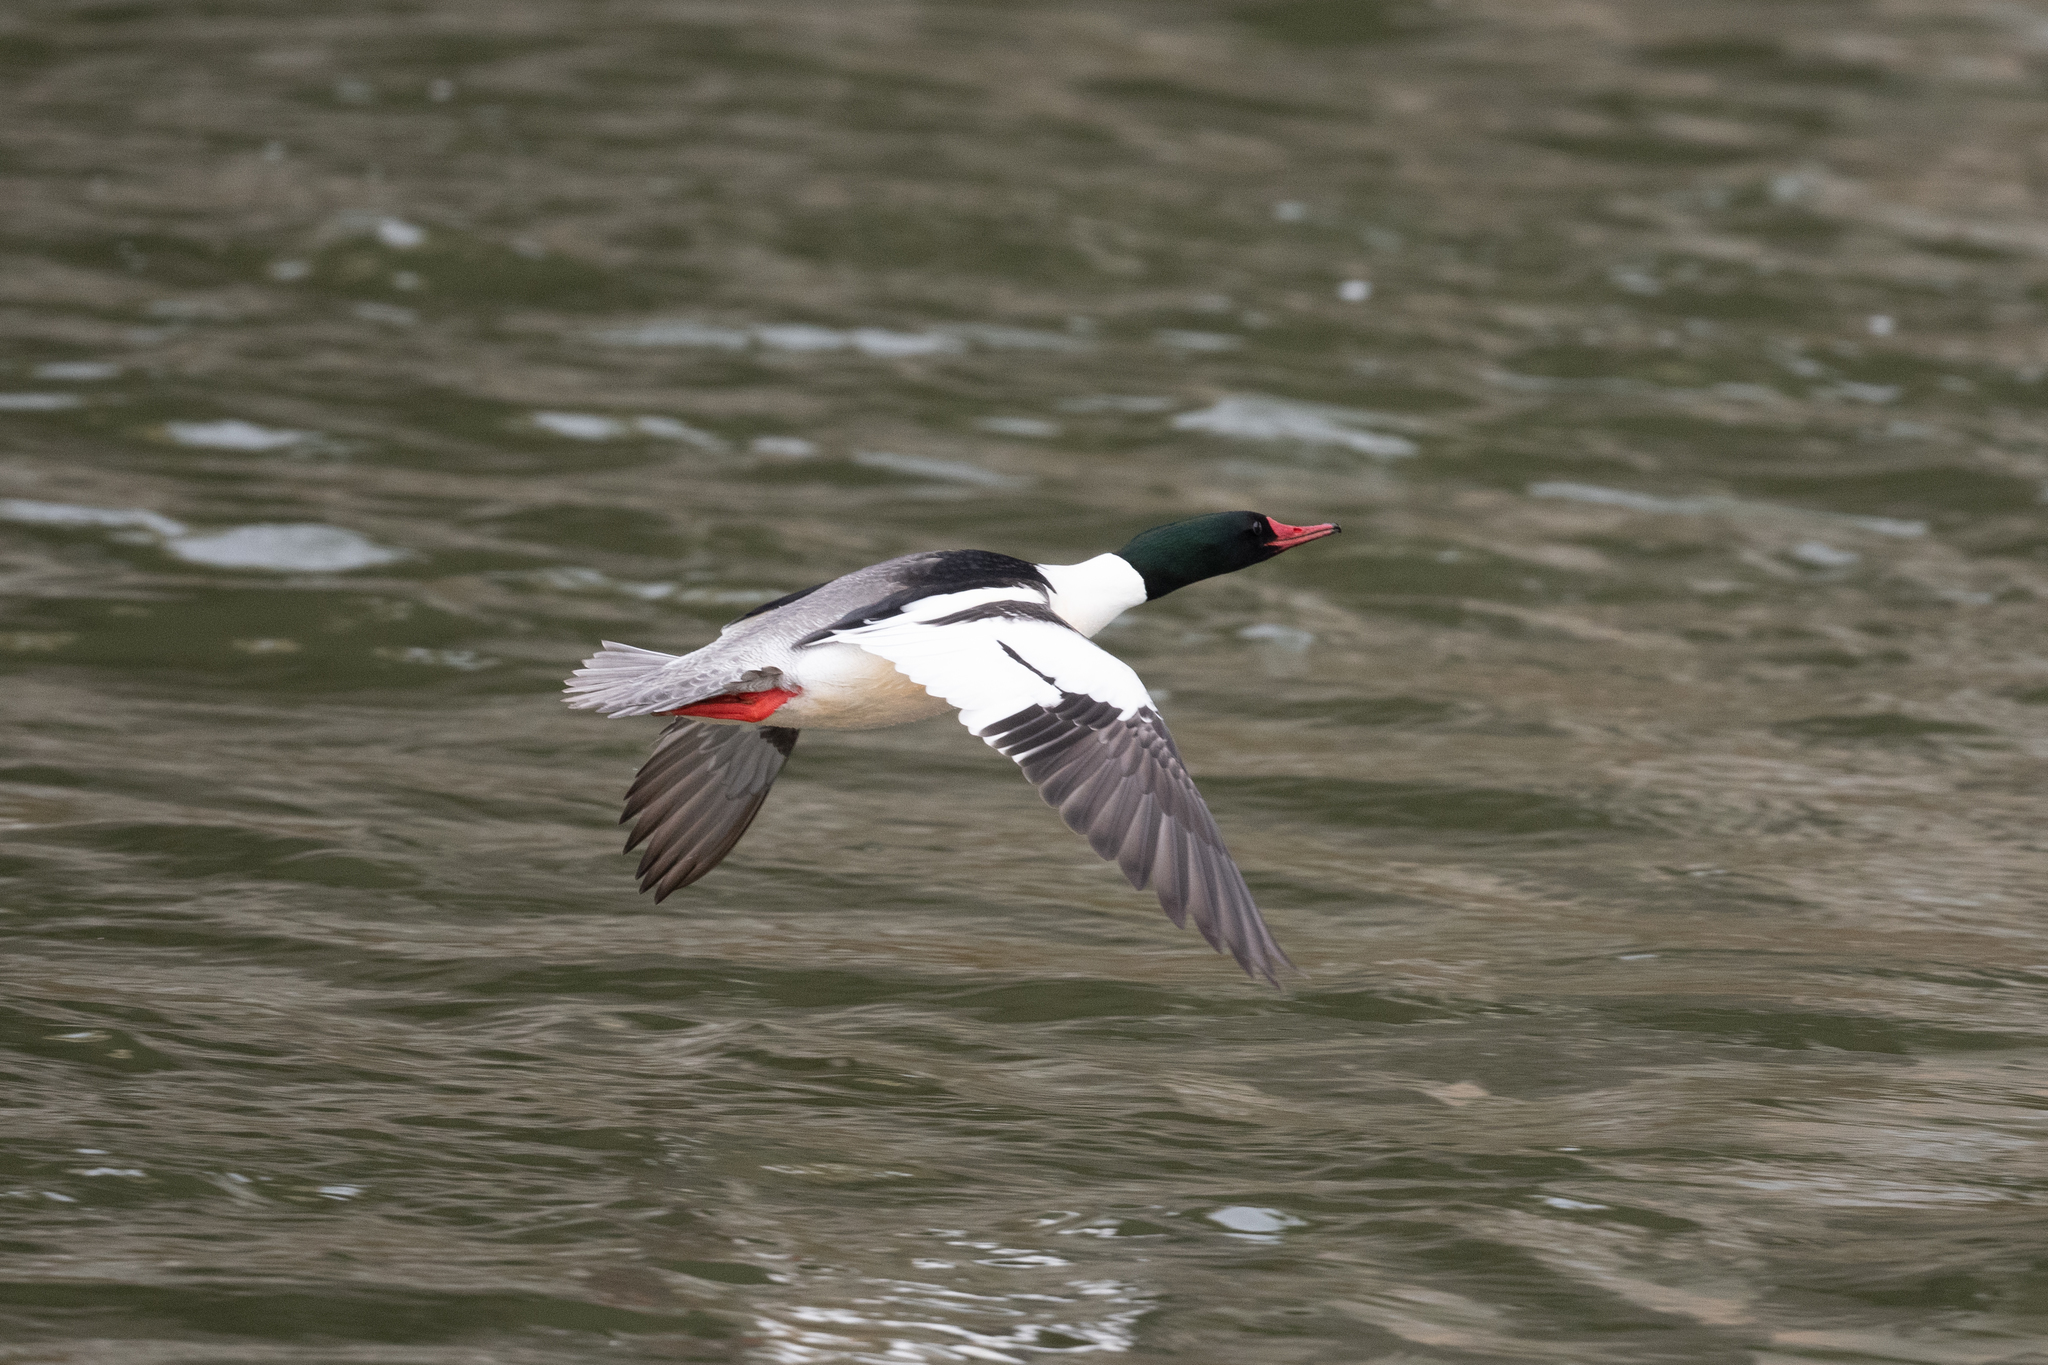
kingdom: Animalia
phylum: Chordata
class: Aves
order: Anseriformes
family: Anatidae
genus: Mergus
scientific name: Mergus merganser
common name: Common merganser
